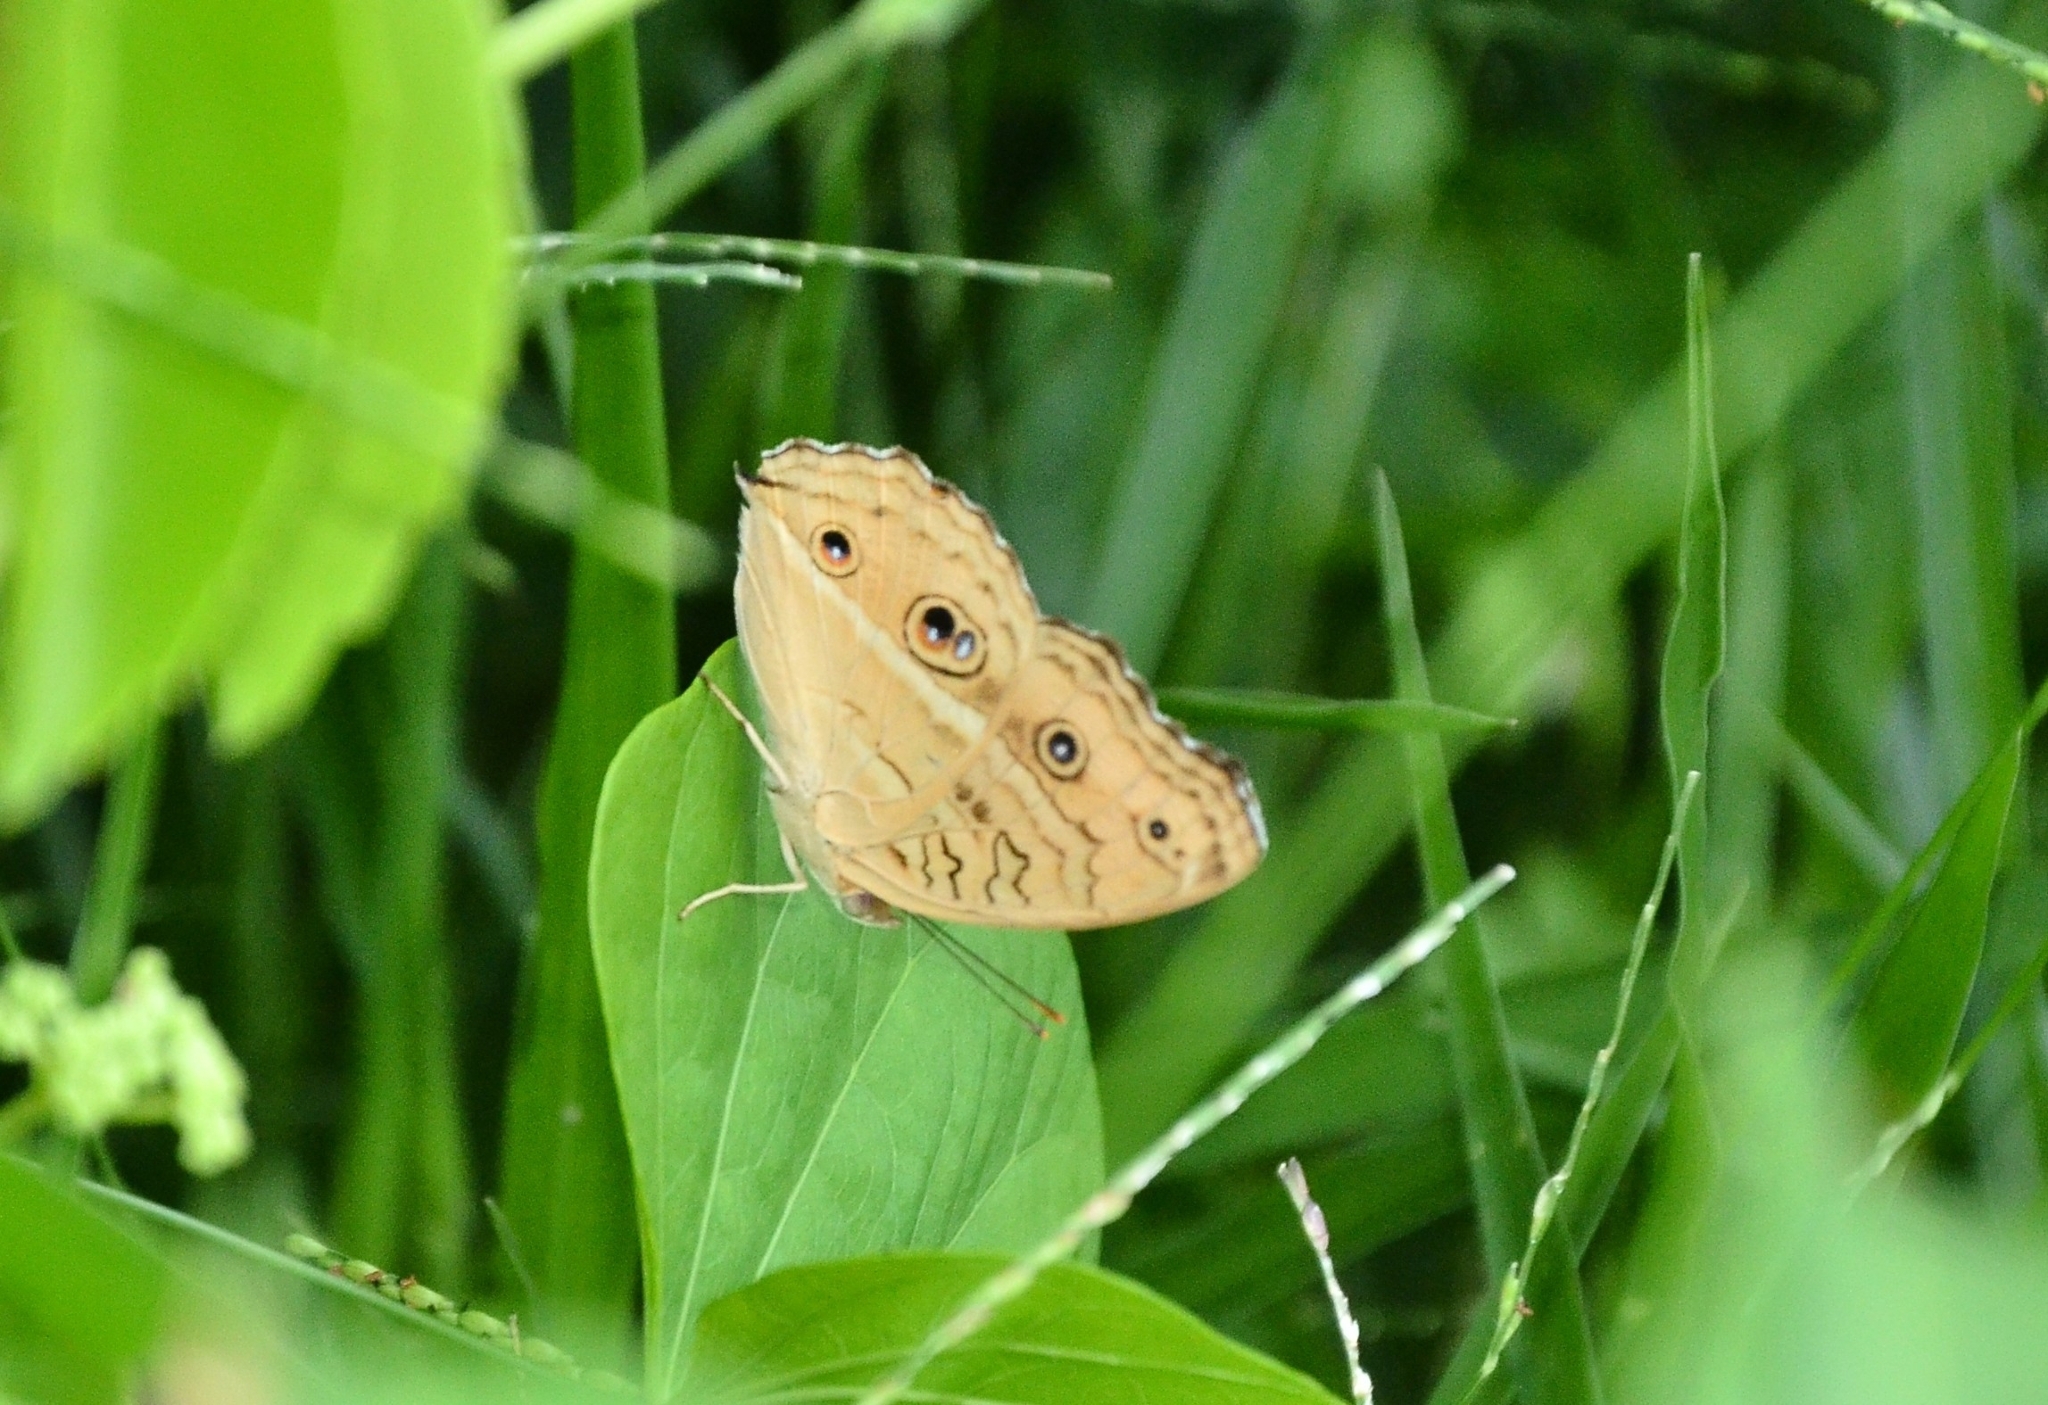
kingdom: Animalia
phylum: Arthropoda
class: Insecta
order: Lepidoptera
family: Nymphalidae
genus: Junonia
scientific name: Junonia almana
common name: Peacock pansy
